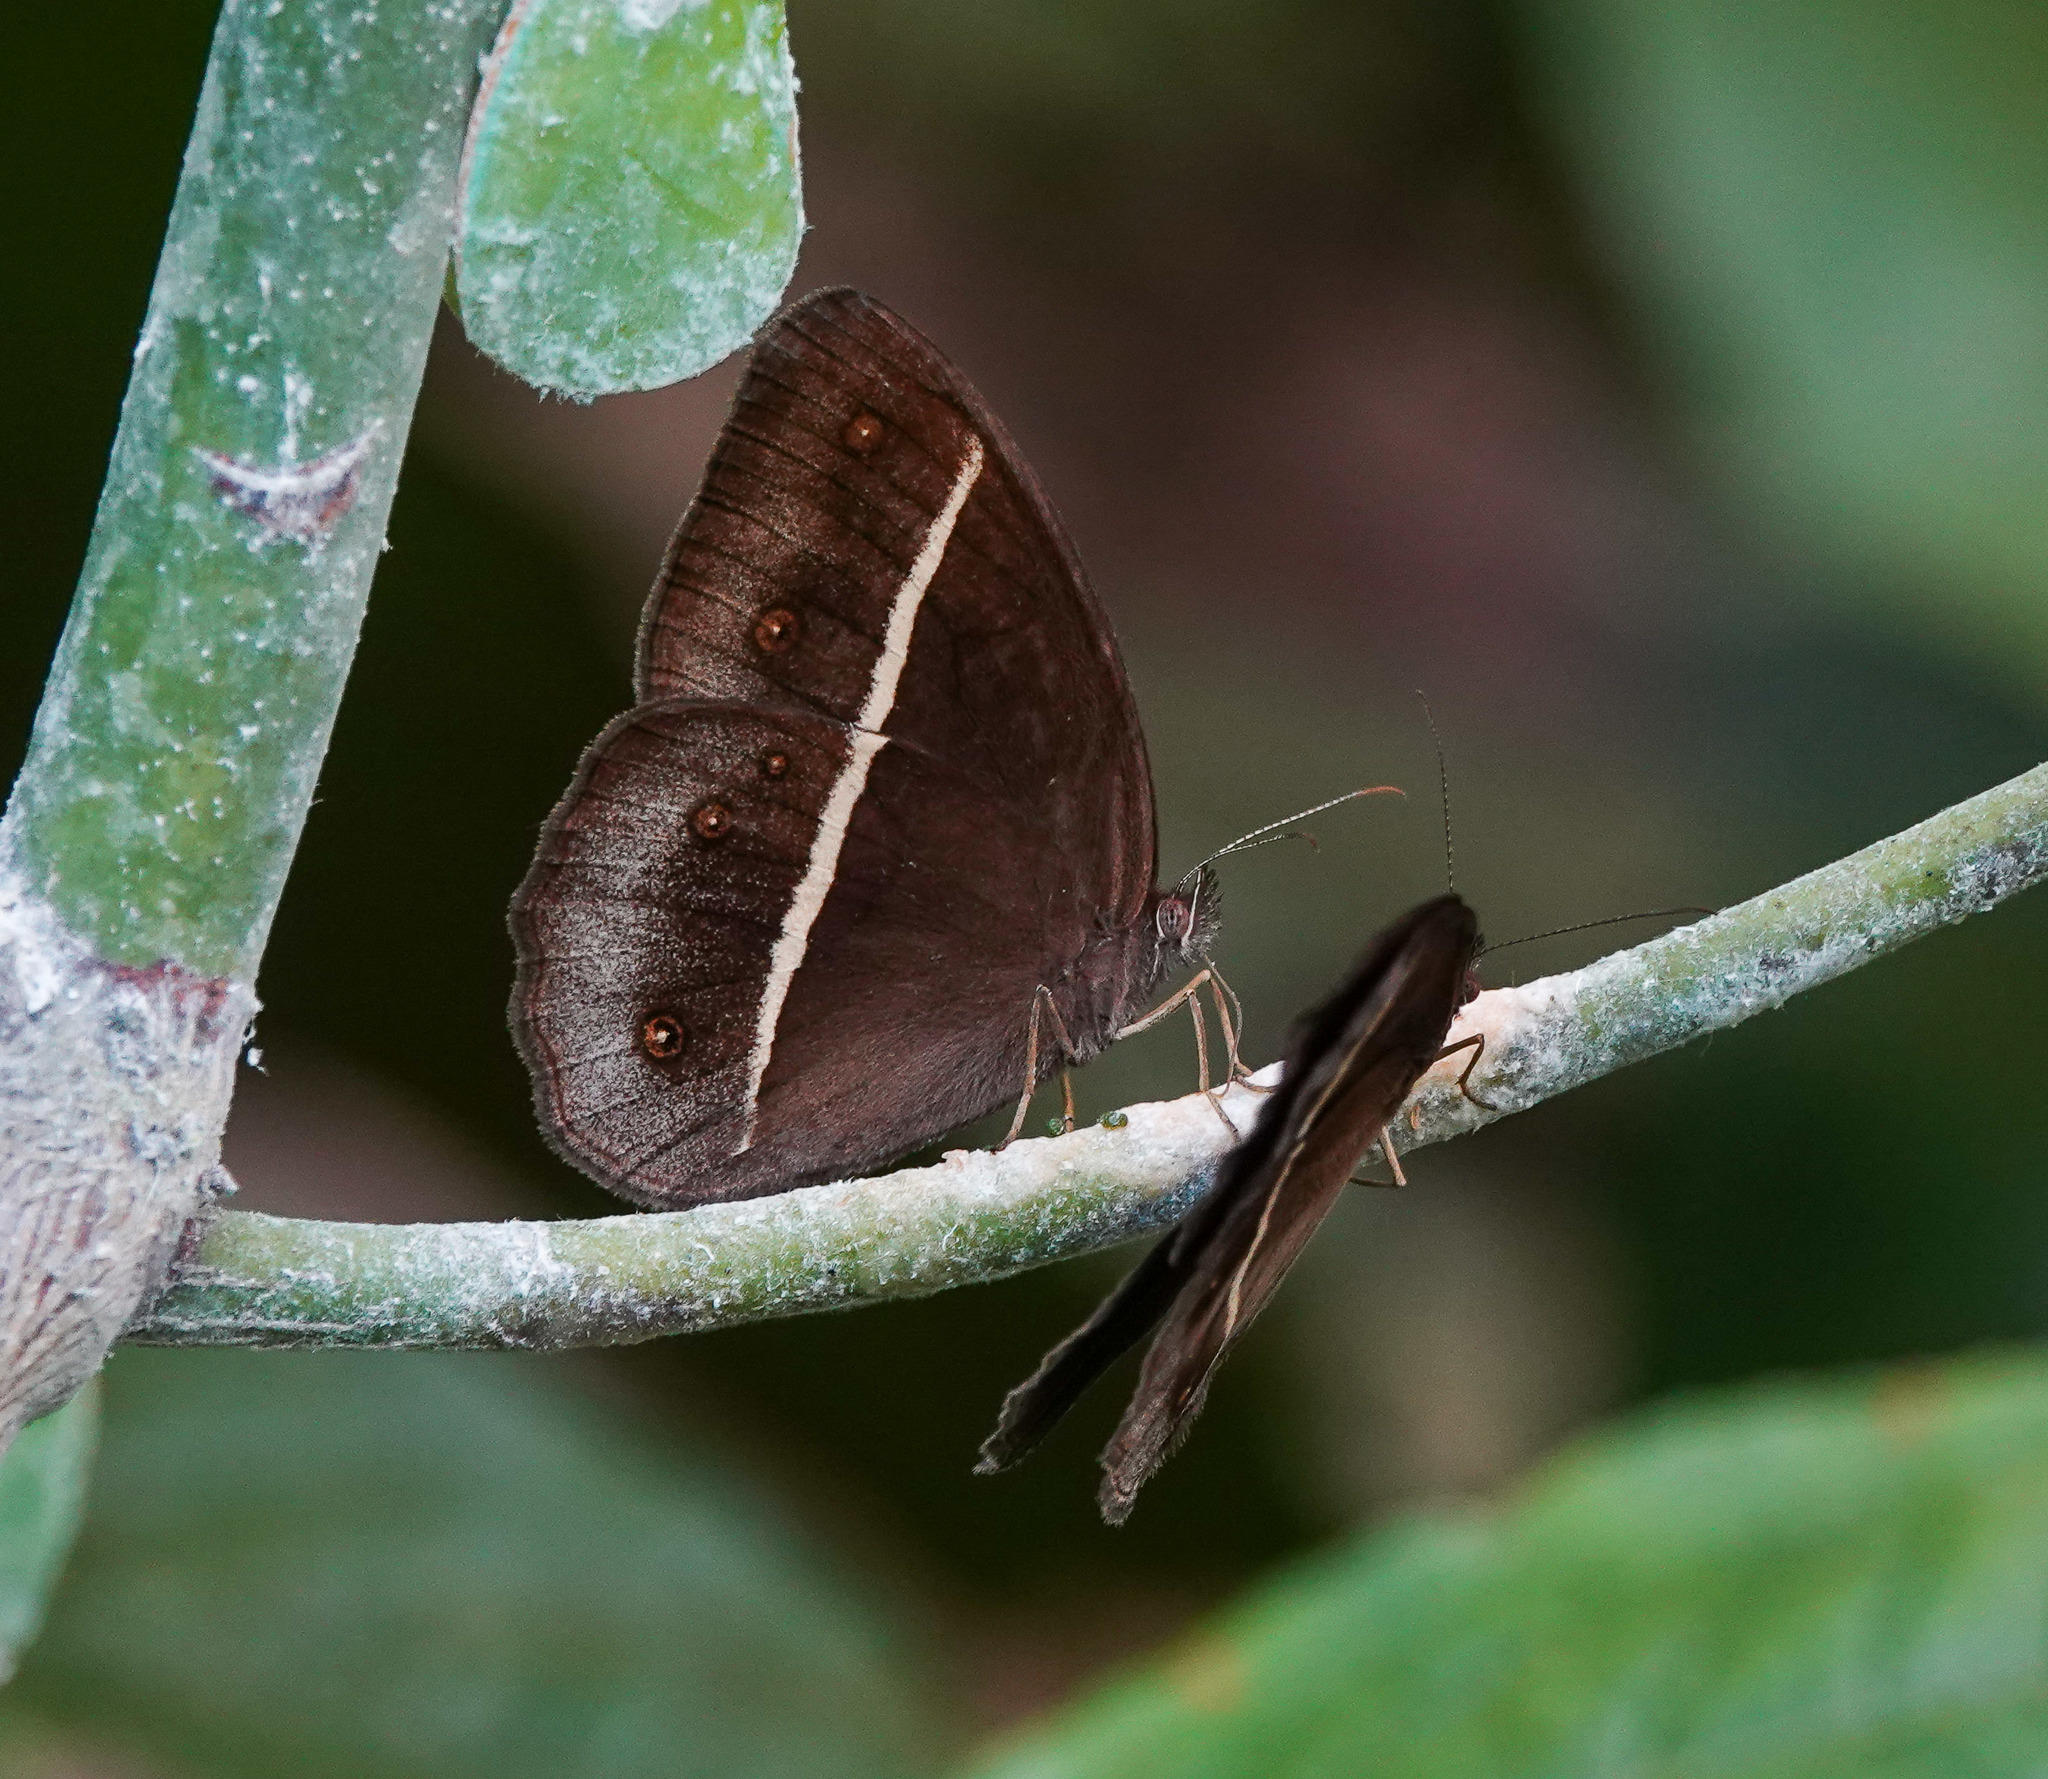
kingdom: Animalia
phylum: Arthropoda
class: Insecta
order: Lepidoptera
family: Nymphalidae
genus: Orsotriaena
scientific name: Orsotriaena medus
